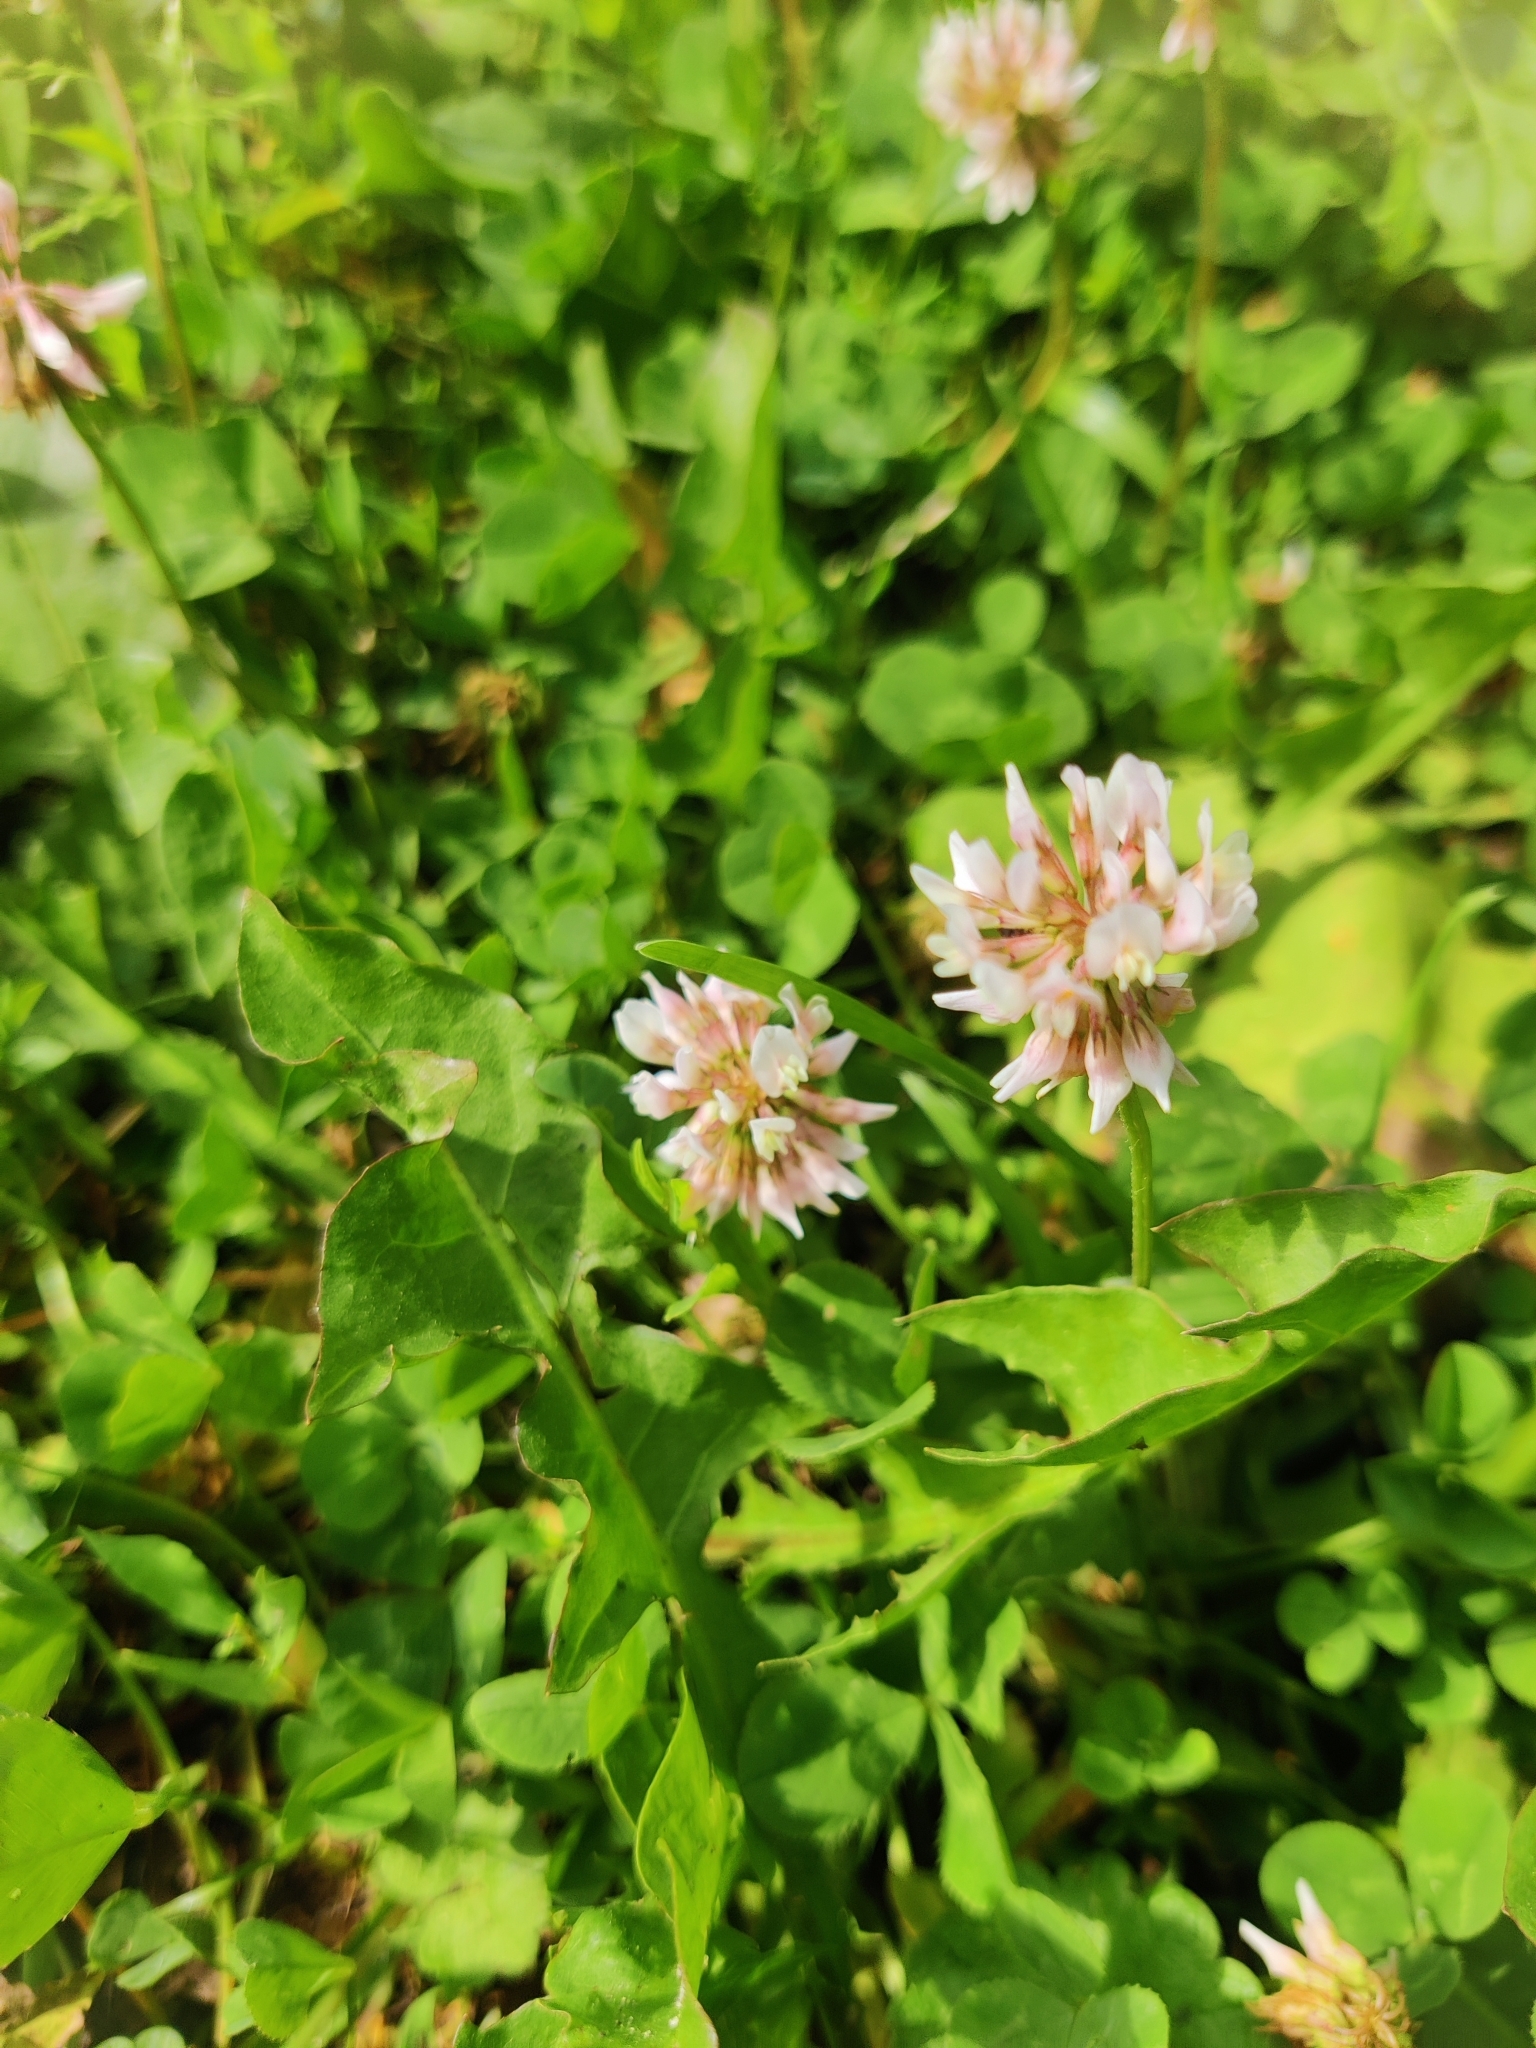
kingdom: Plantae
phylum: Tracheophyta
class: Magnoliopsida
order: Fabales
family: Fabaceae
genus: Trifolium
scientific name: Trifolium repens
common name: White clover
